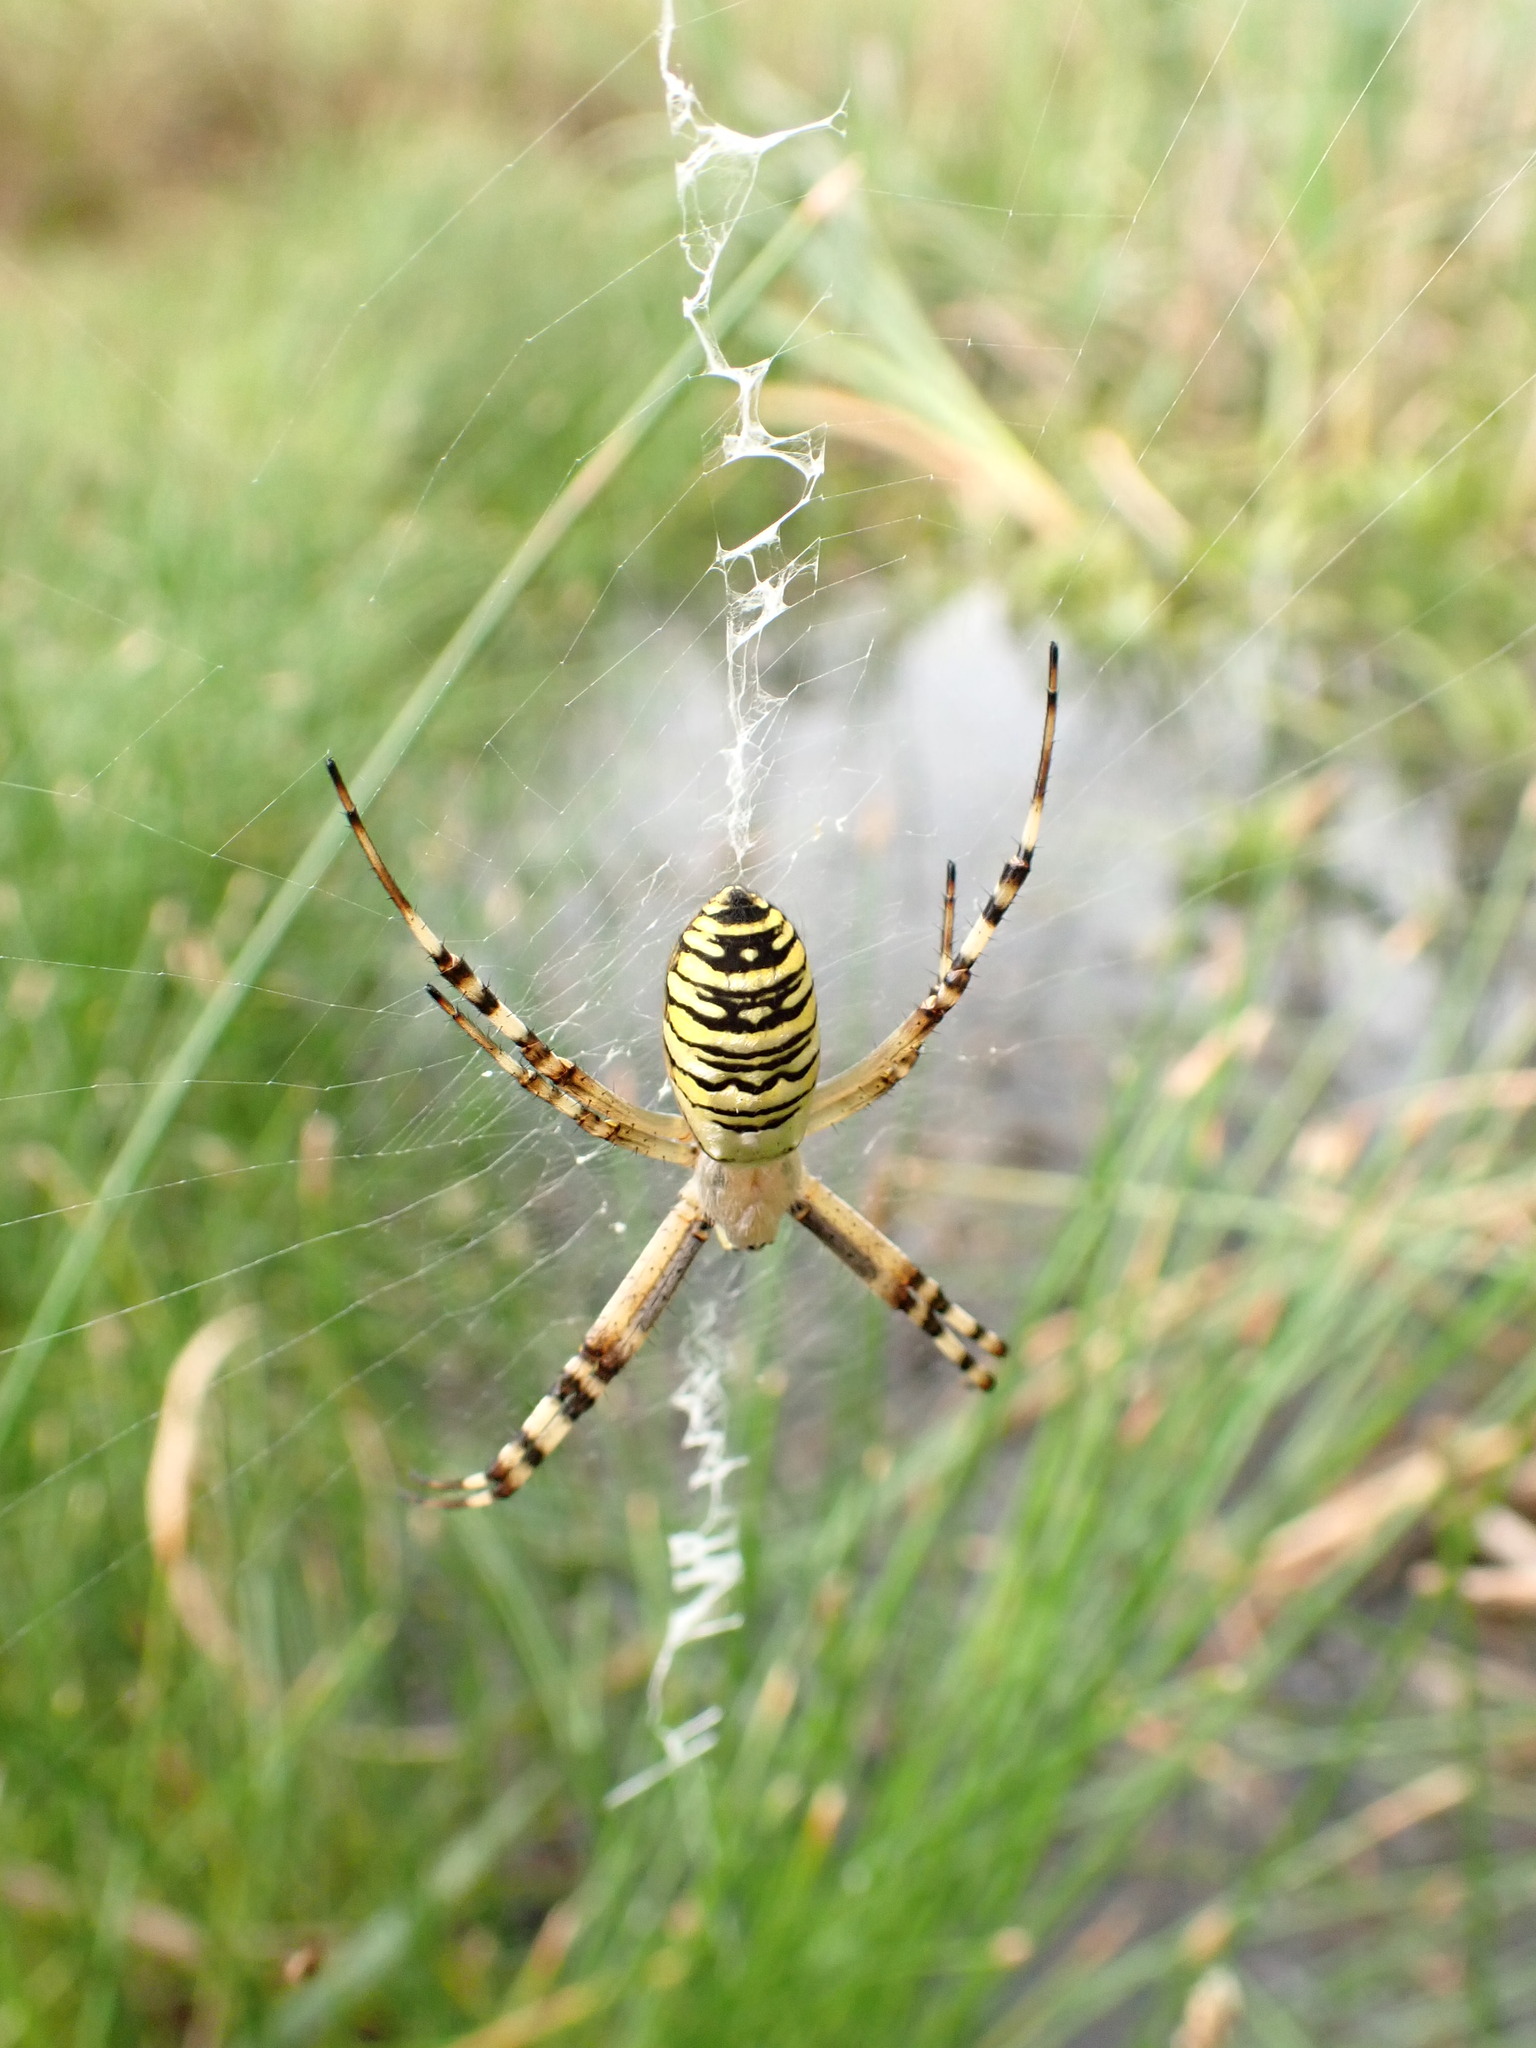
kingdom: Animalia
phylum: Arthropoda
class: Arachnida
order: Araneae
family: Araneidae
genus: Argiope
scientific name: Argiope bruennichi
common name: Wasp spider
